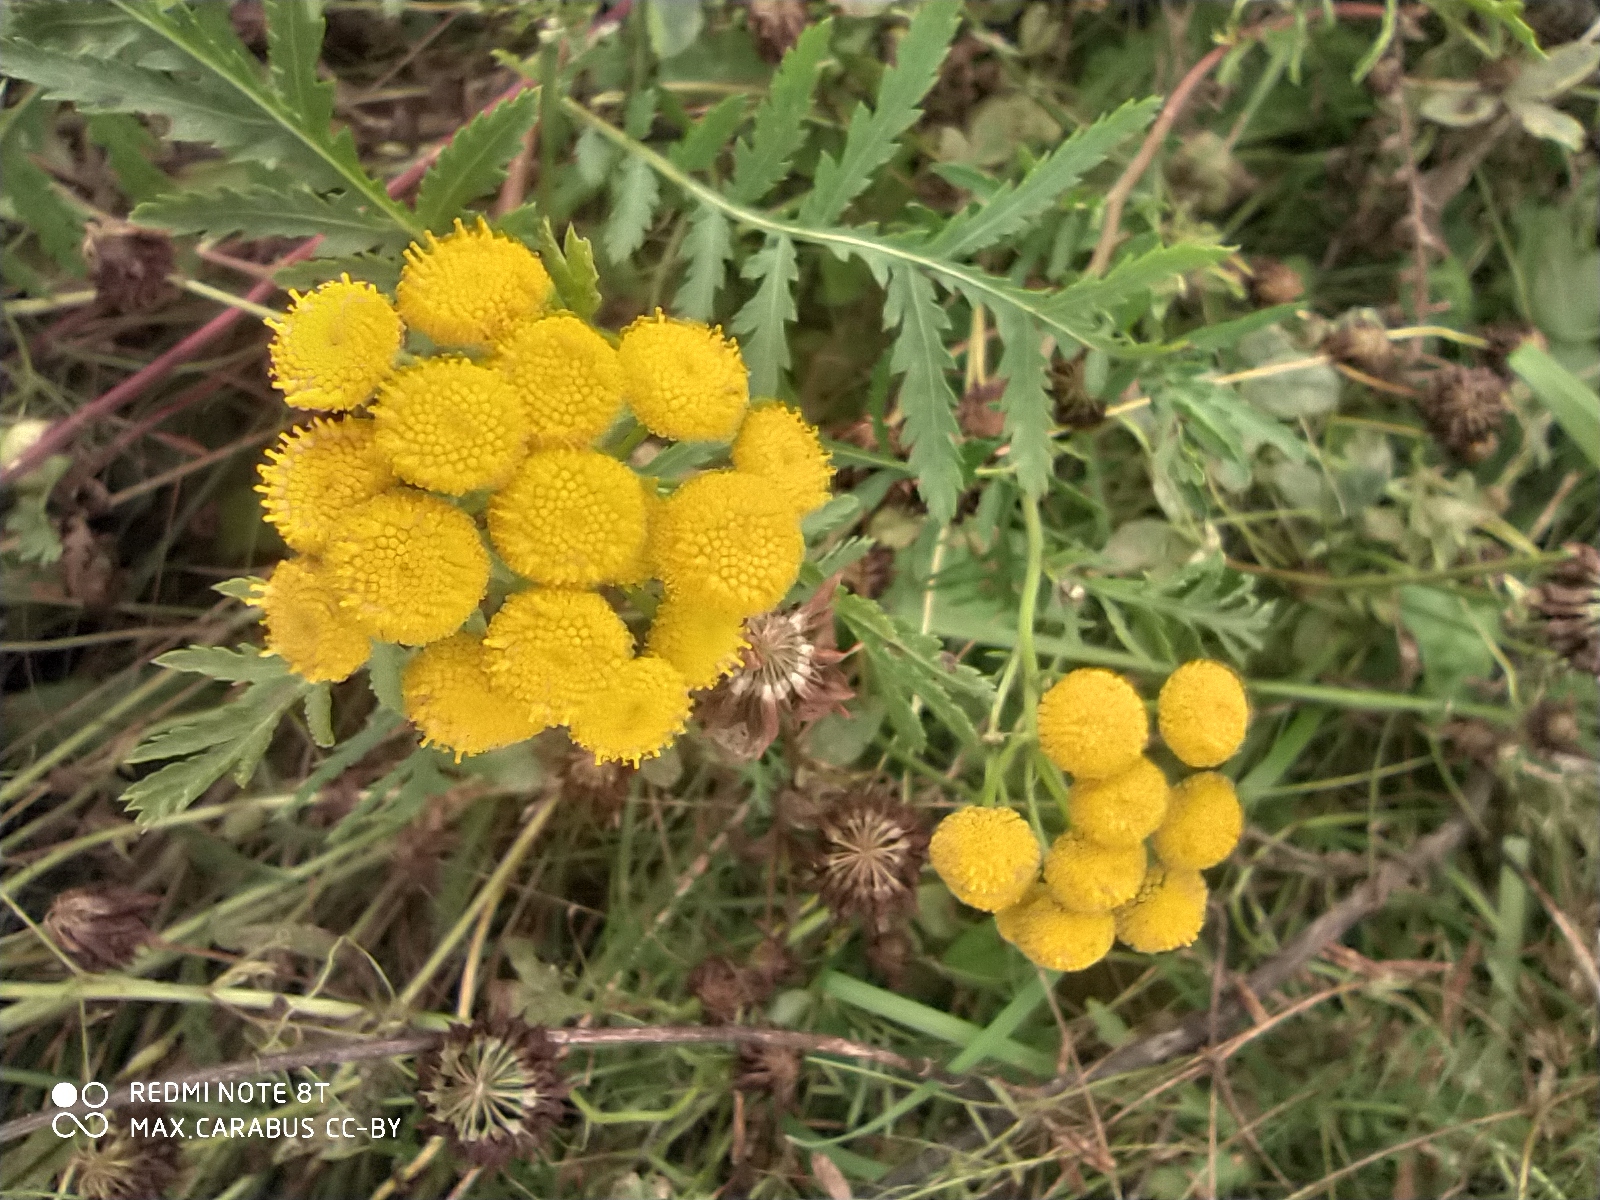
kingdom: Plantae
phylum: Tracheophyta
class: Magnoliopsida
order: Asterales
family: Asteraceae
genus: Tanacetum
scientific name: Tanacetum vulgare
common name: Common tansy
